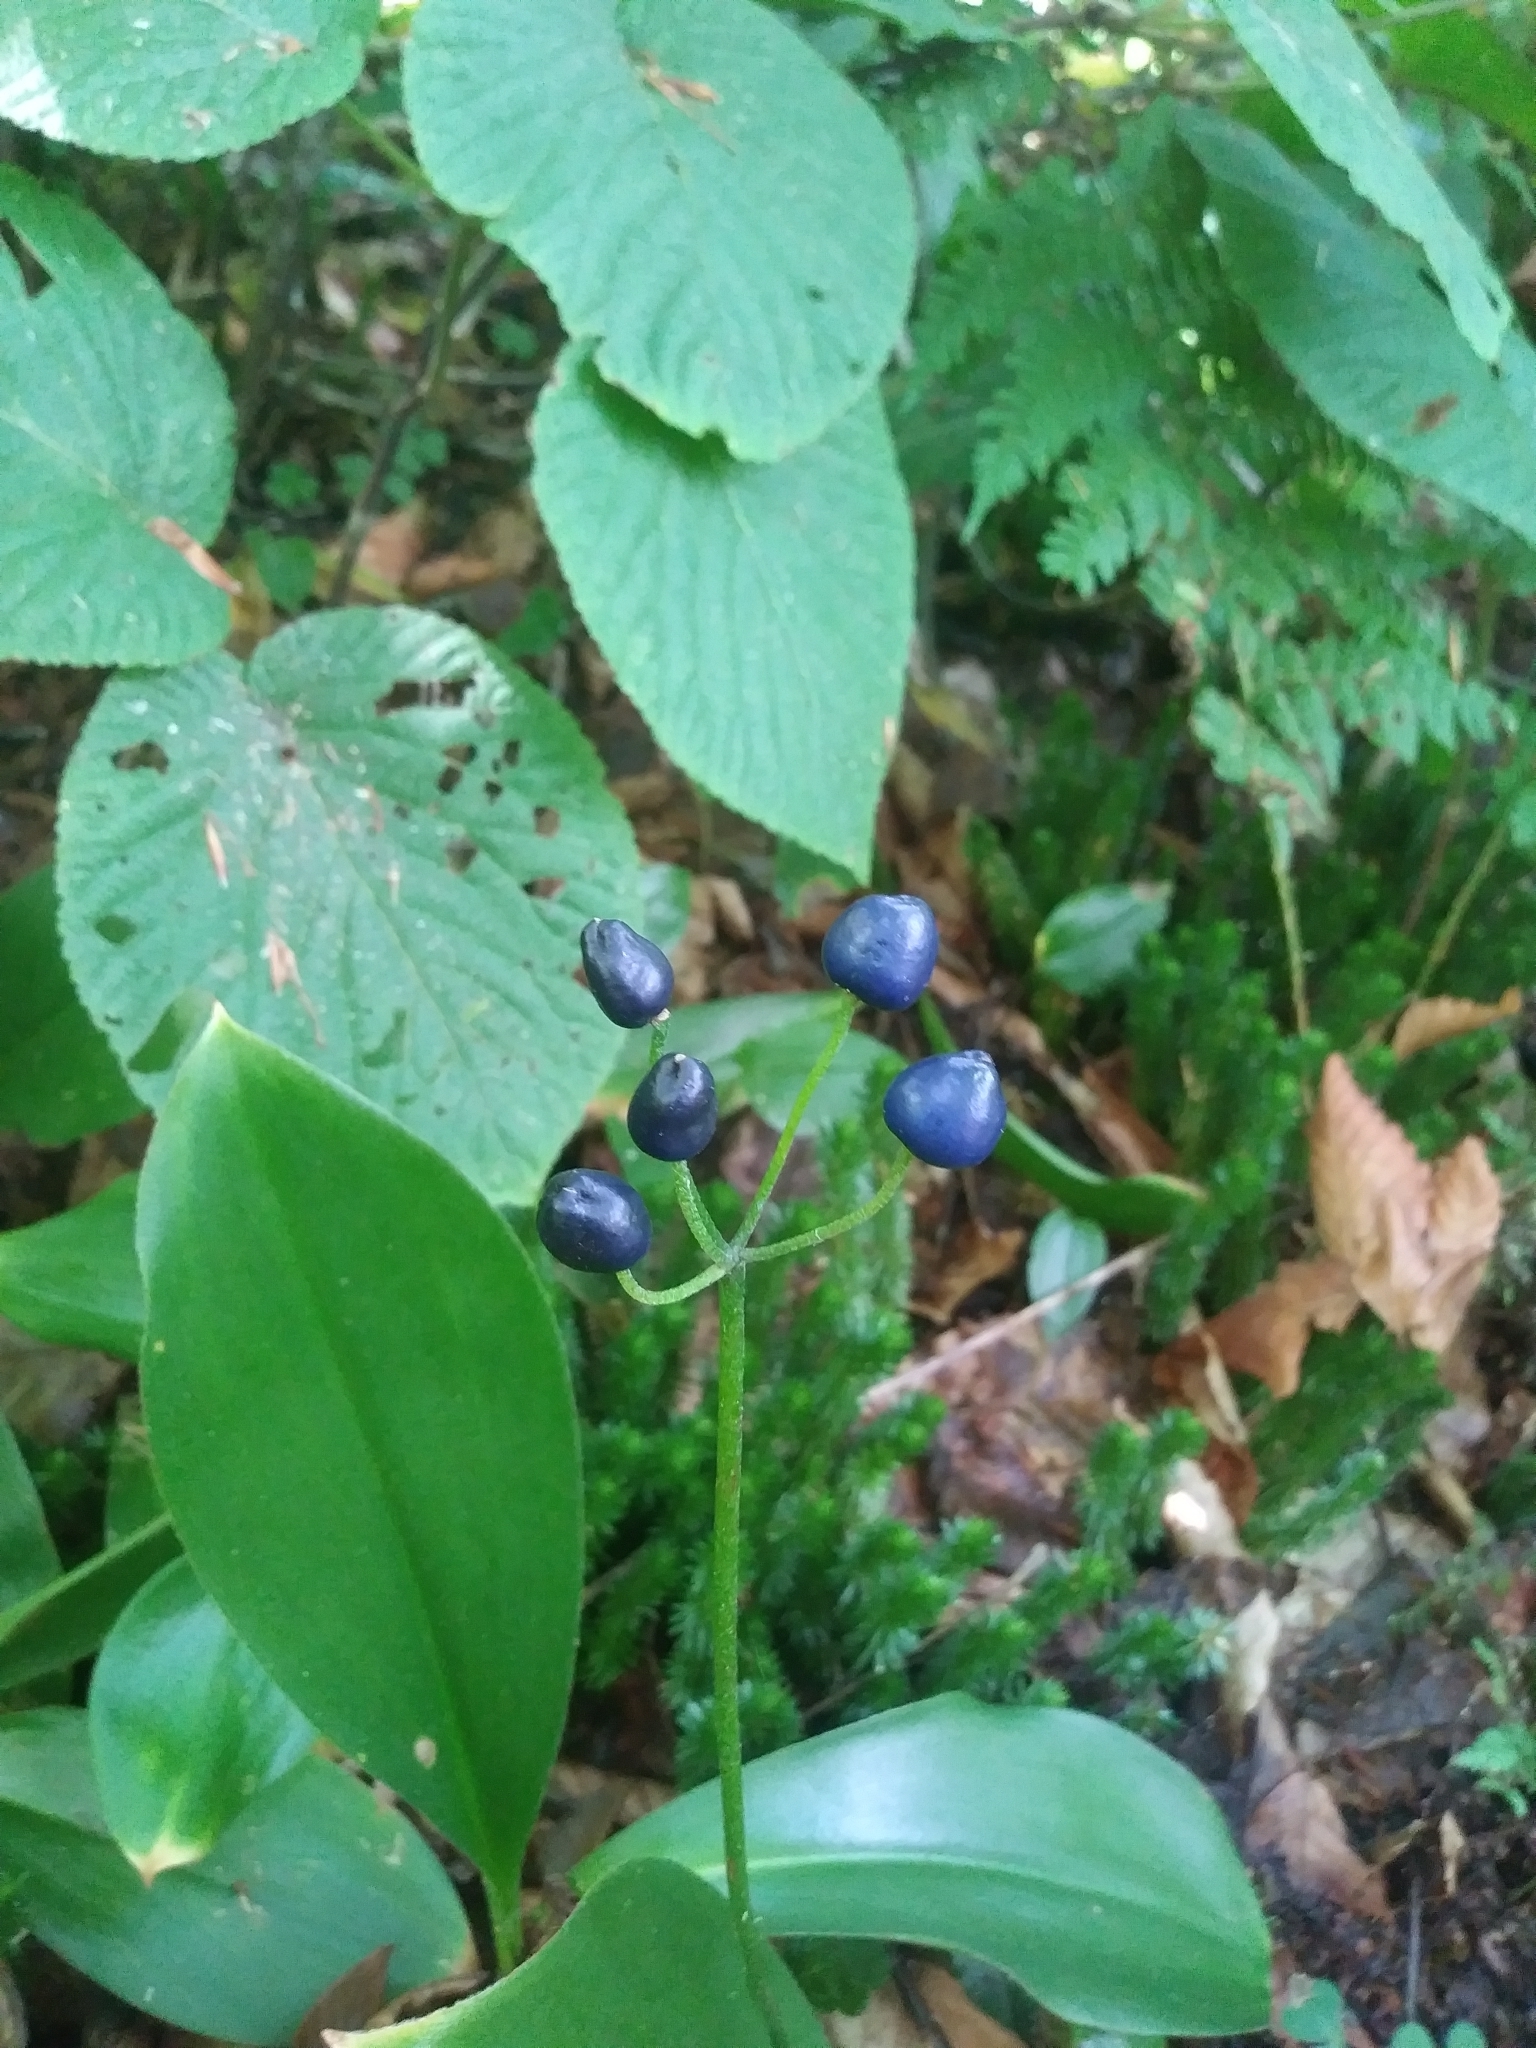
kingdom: Plantae
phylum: Tracheophyta
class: Liliopsida
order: Liliales
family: Liliaceae
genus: Clintonia
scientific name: Clintonia borealis
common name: Yellow clintonia
